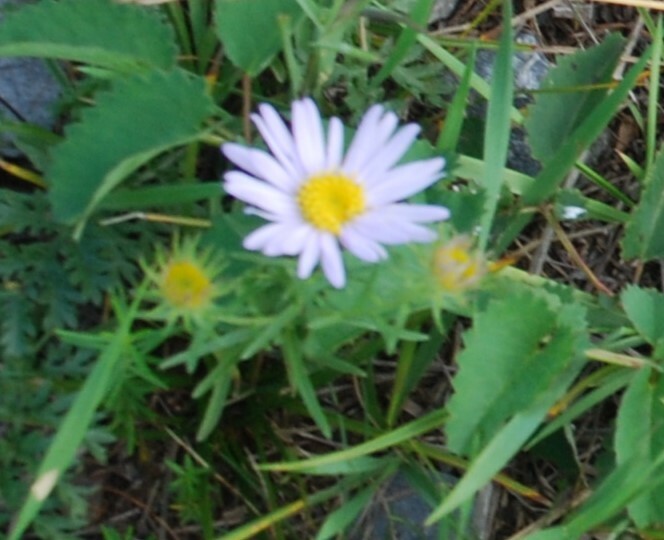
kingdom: Plantae
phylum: Tracheophyta
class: Magnoliopsida
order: Asterales
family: Asteraceae
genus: Aster
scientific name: Aster biennis
